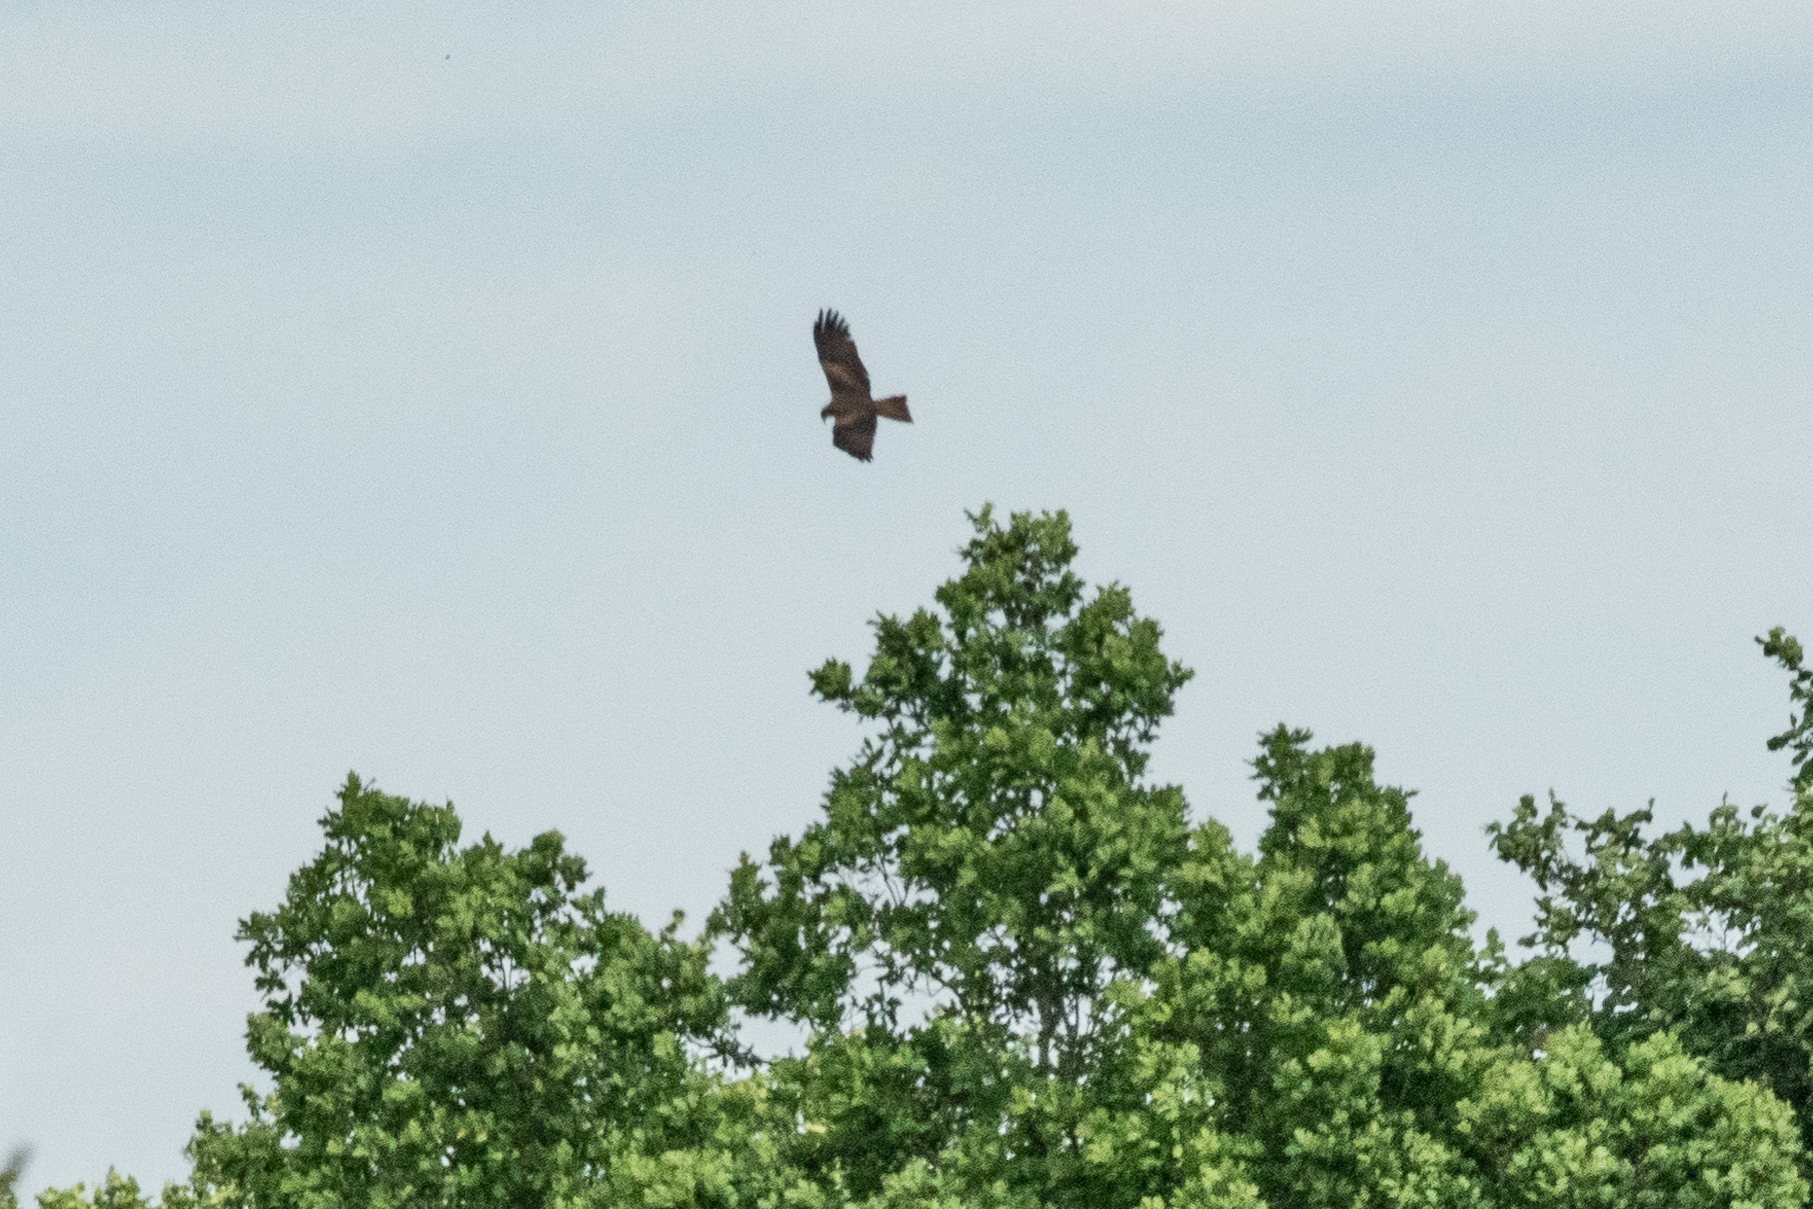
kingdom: Animalia
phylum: Chordata
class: Aves
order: Accipitriformes
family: Accipitridae
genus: Milvus
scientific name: Milvus migrans
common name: Black kite
